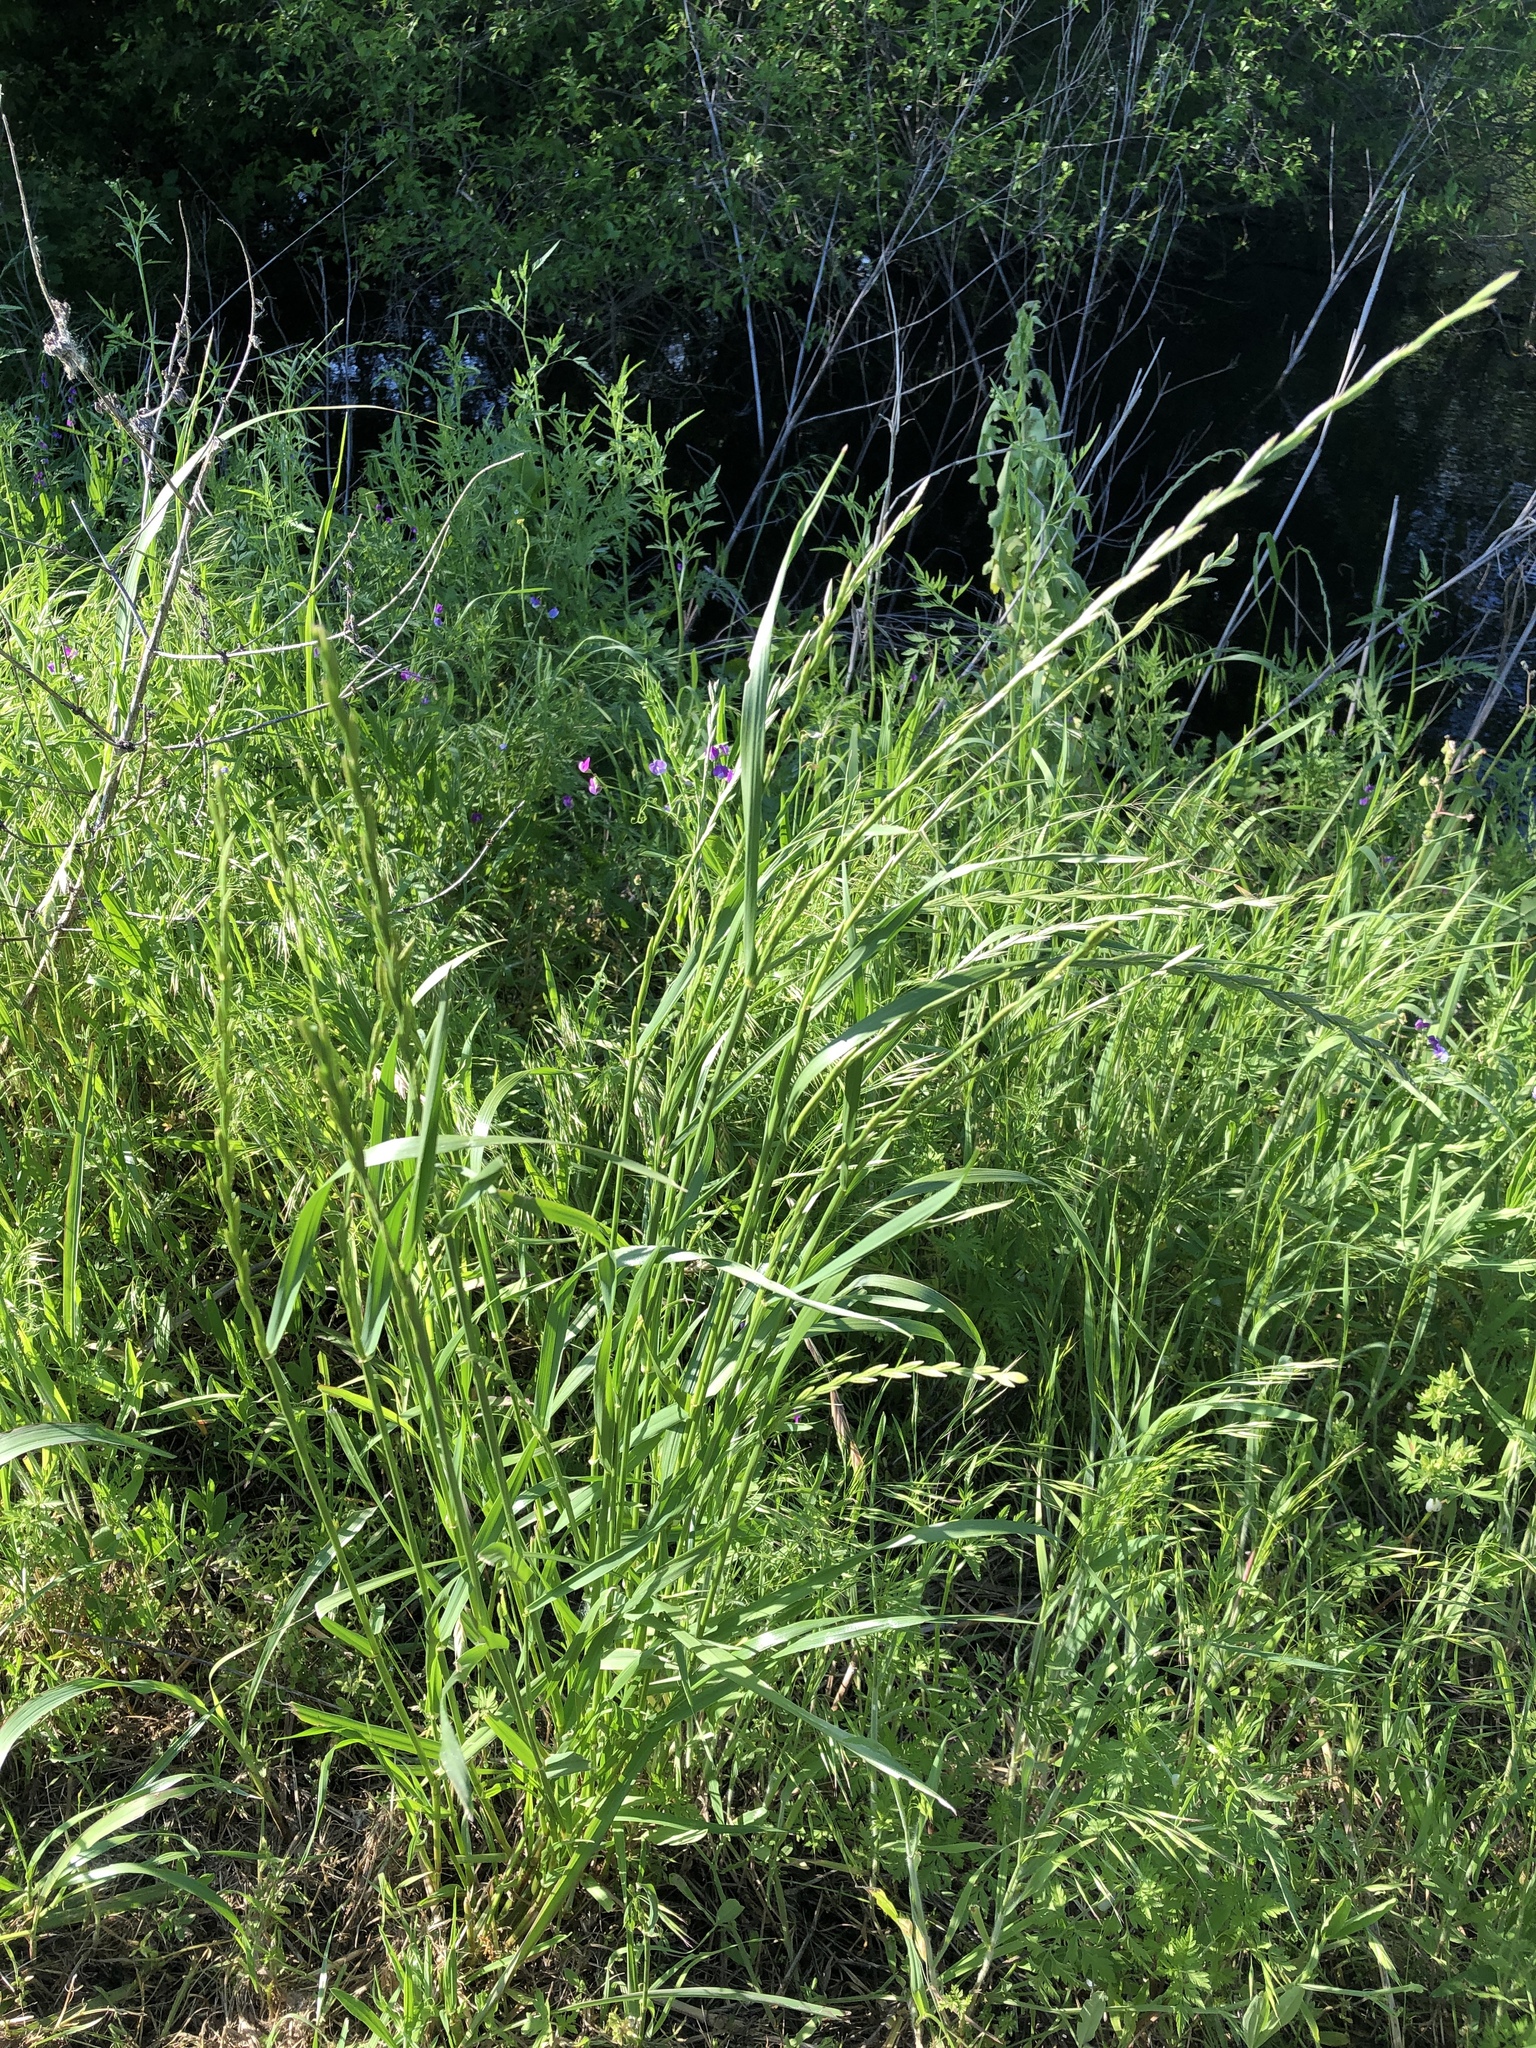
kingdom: Plantae
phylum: Tracheophyta
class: Liliopsida
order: Poales
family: Poaceae
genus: Lolium
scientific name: Lolium perenne
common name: Perennial ryegrass
